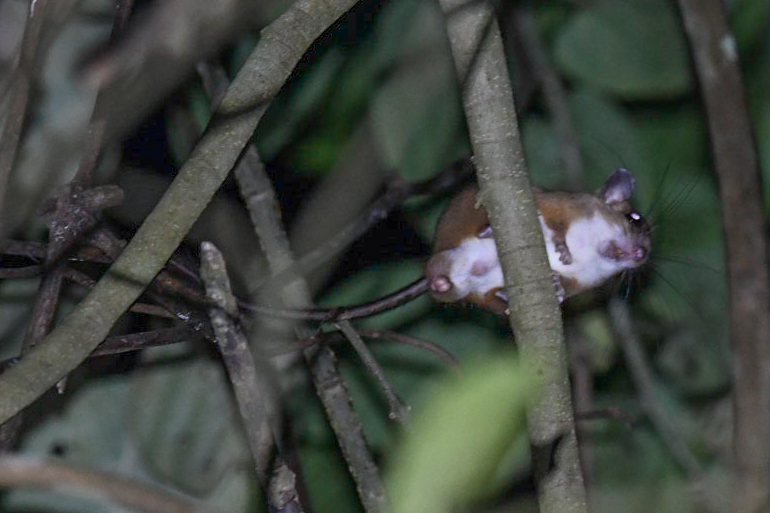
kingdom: Animalia
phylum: Chordata
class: Mammalia
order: Rodentia
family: Cricetidae
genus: Nyctomys
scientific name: Nyctomys sumichrasti
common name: Vesper rat
